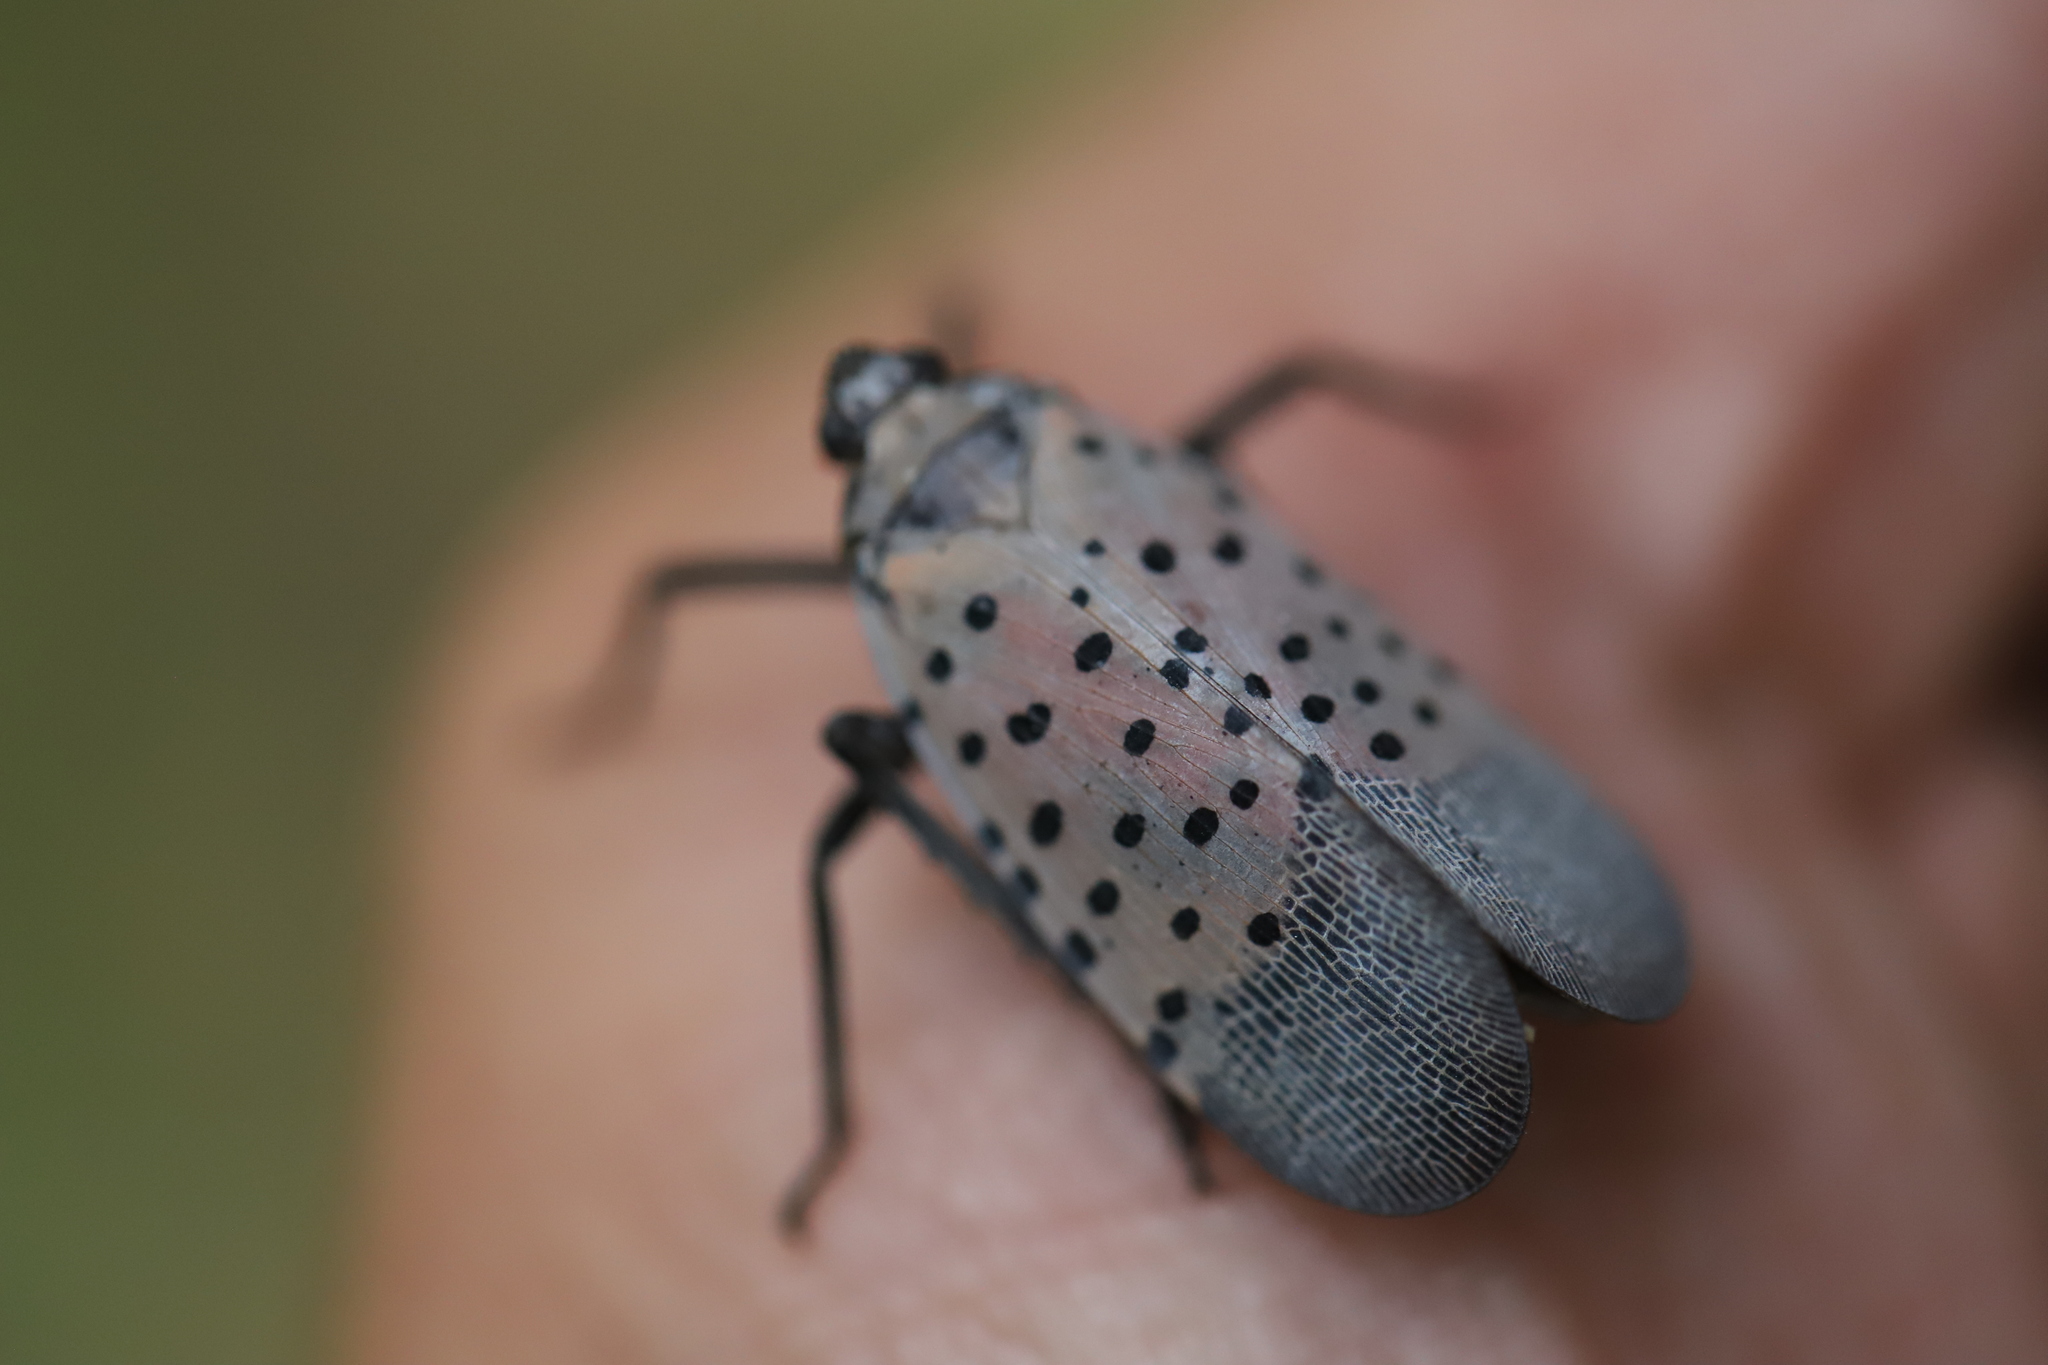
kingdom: Animalia
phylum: Arthropoda
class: Insecta
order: Hemiptera
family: Fulgoridae
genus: Lycorma
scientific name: Lycorma delicatula
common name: Spotted lanternfly
